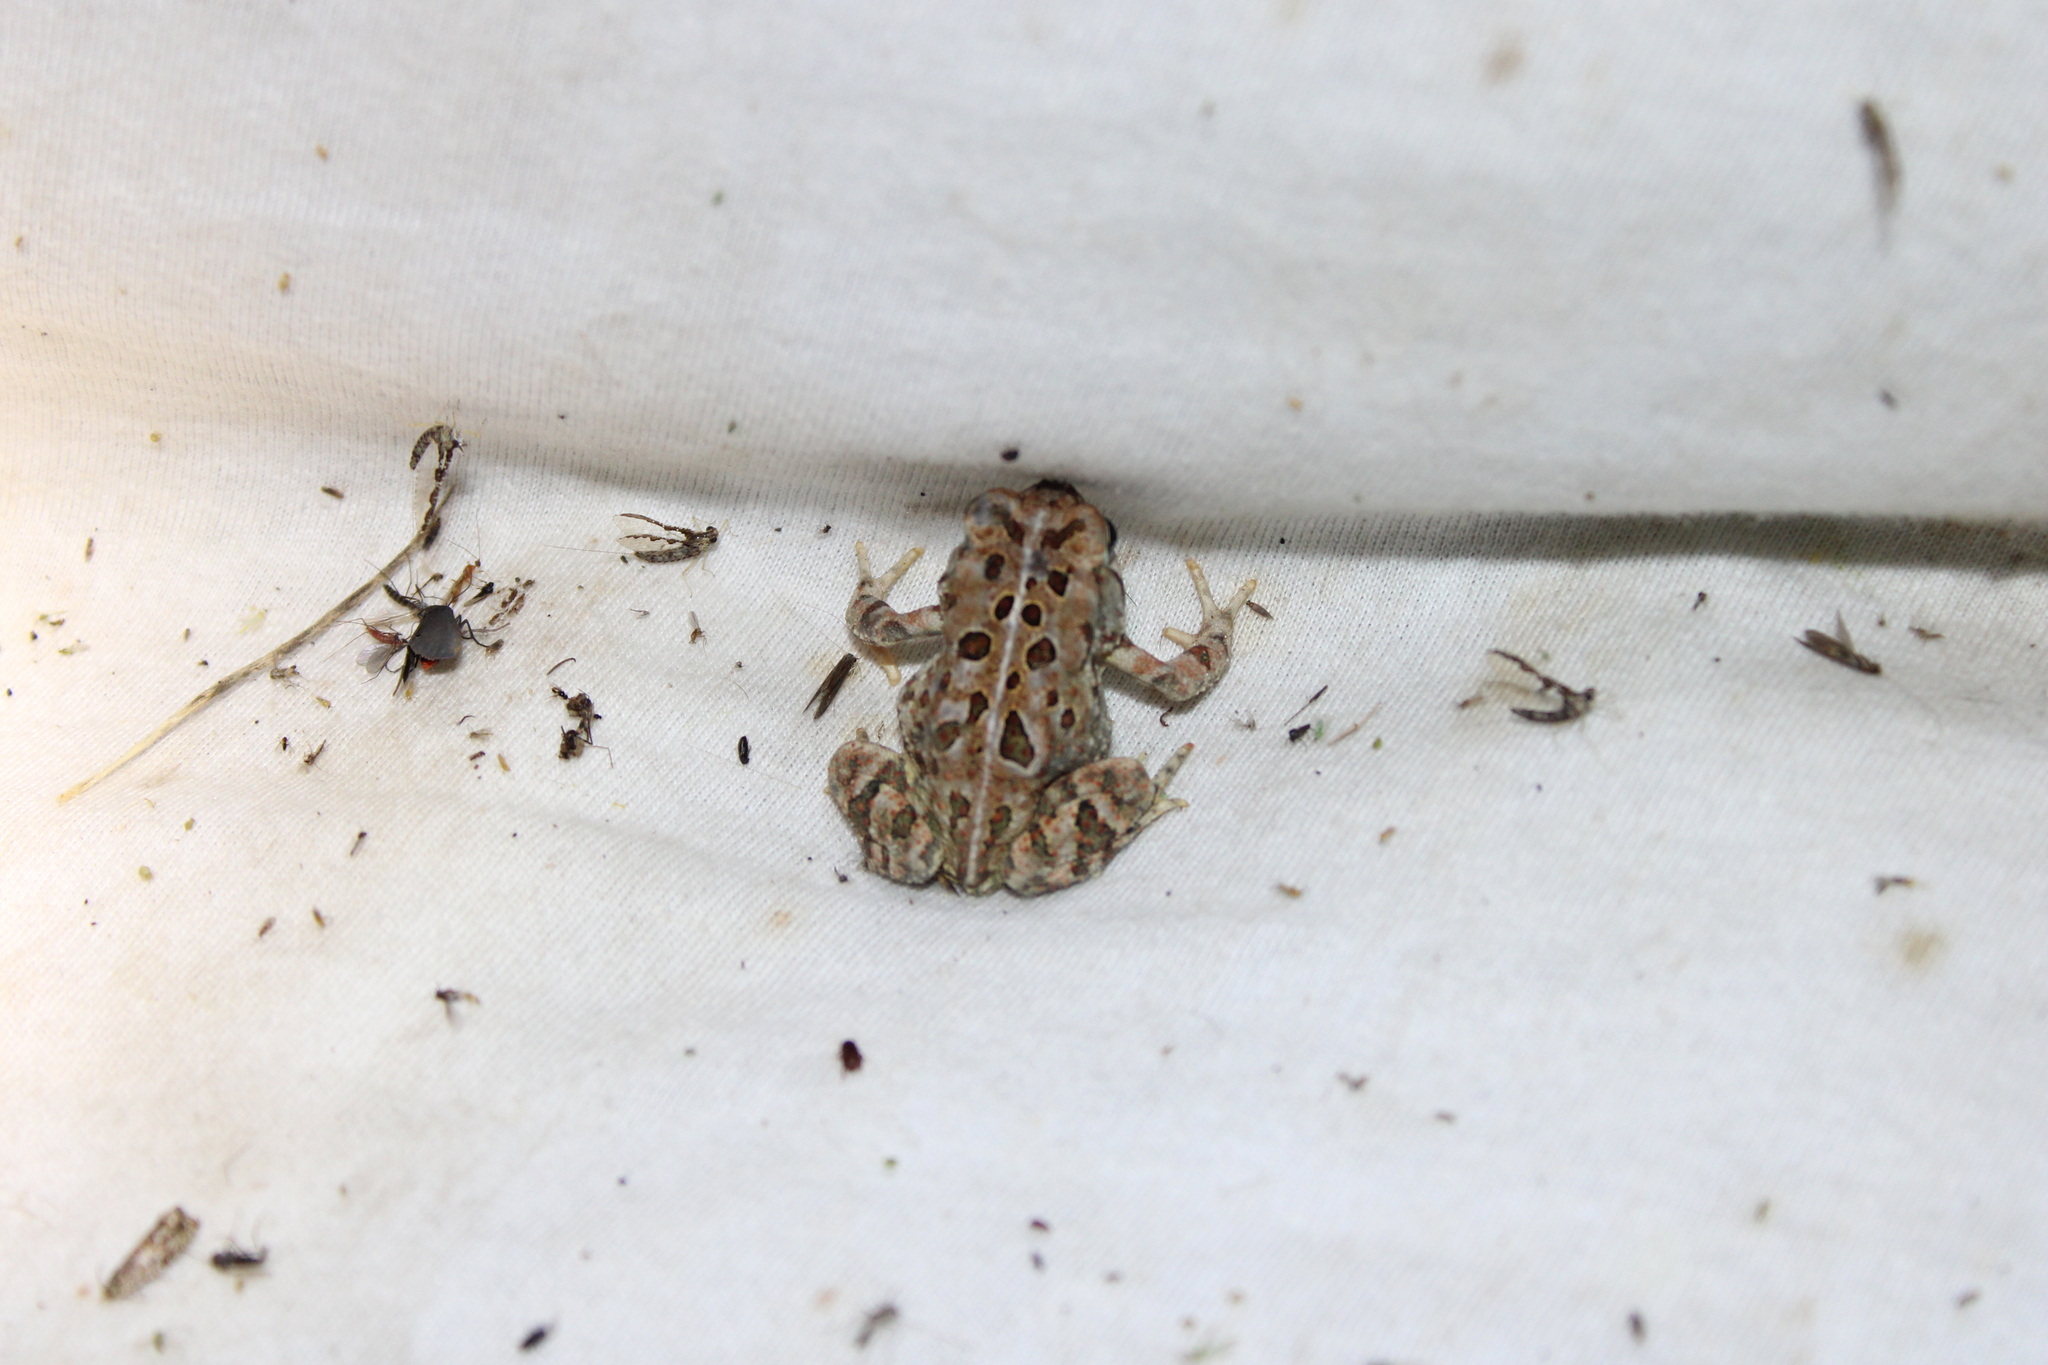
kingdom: Animalia
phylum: Chordata
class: Amphibia
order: Anura
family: Bufonidae
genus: Anaxyrus
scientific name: Anaxyrus fowleri
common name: Fowler's toad
